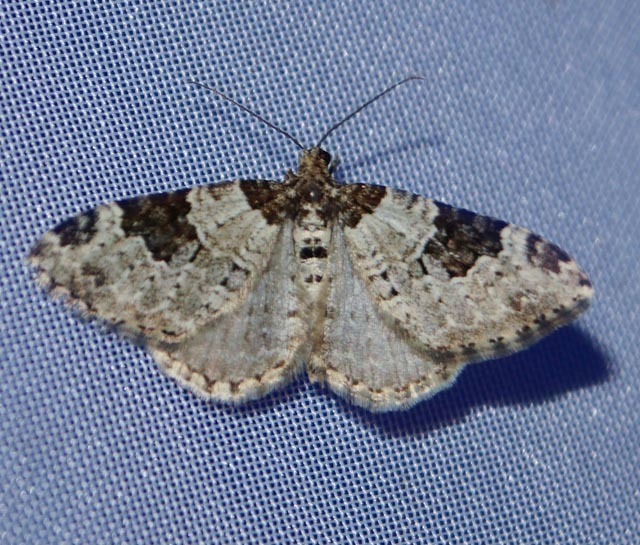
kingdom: Animalia
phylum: Arthropoda
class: Insecta
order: Lepidoptera
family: Geometridae
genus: Xanthorhoe
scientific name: Xanthorhoe fluctuata
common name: Garden carpet
